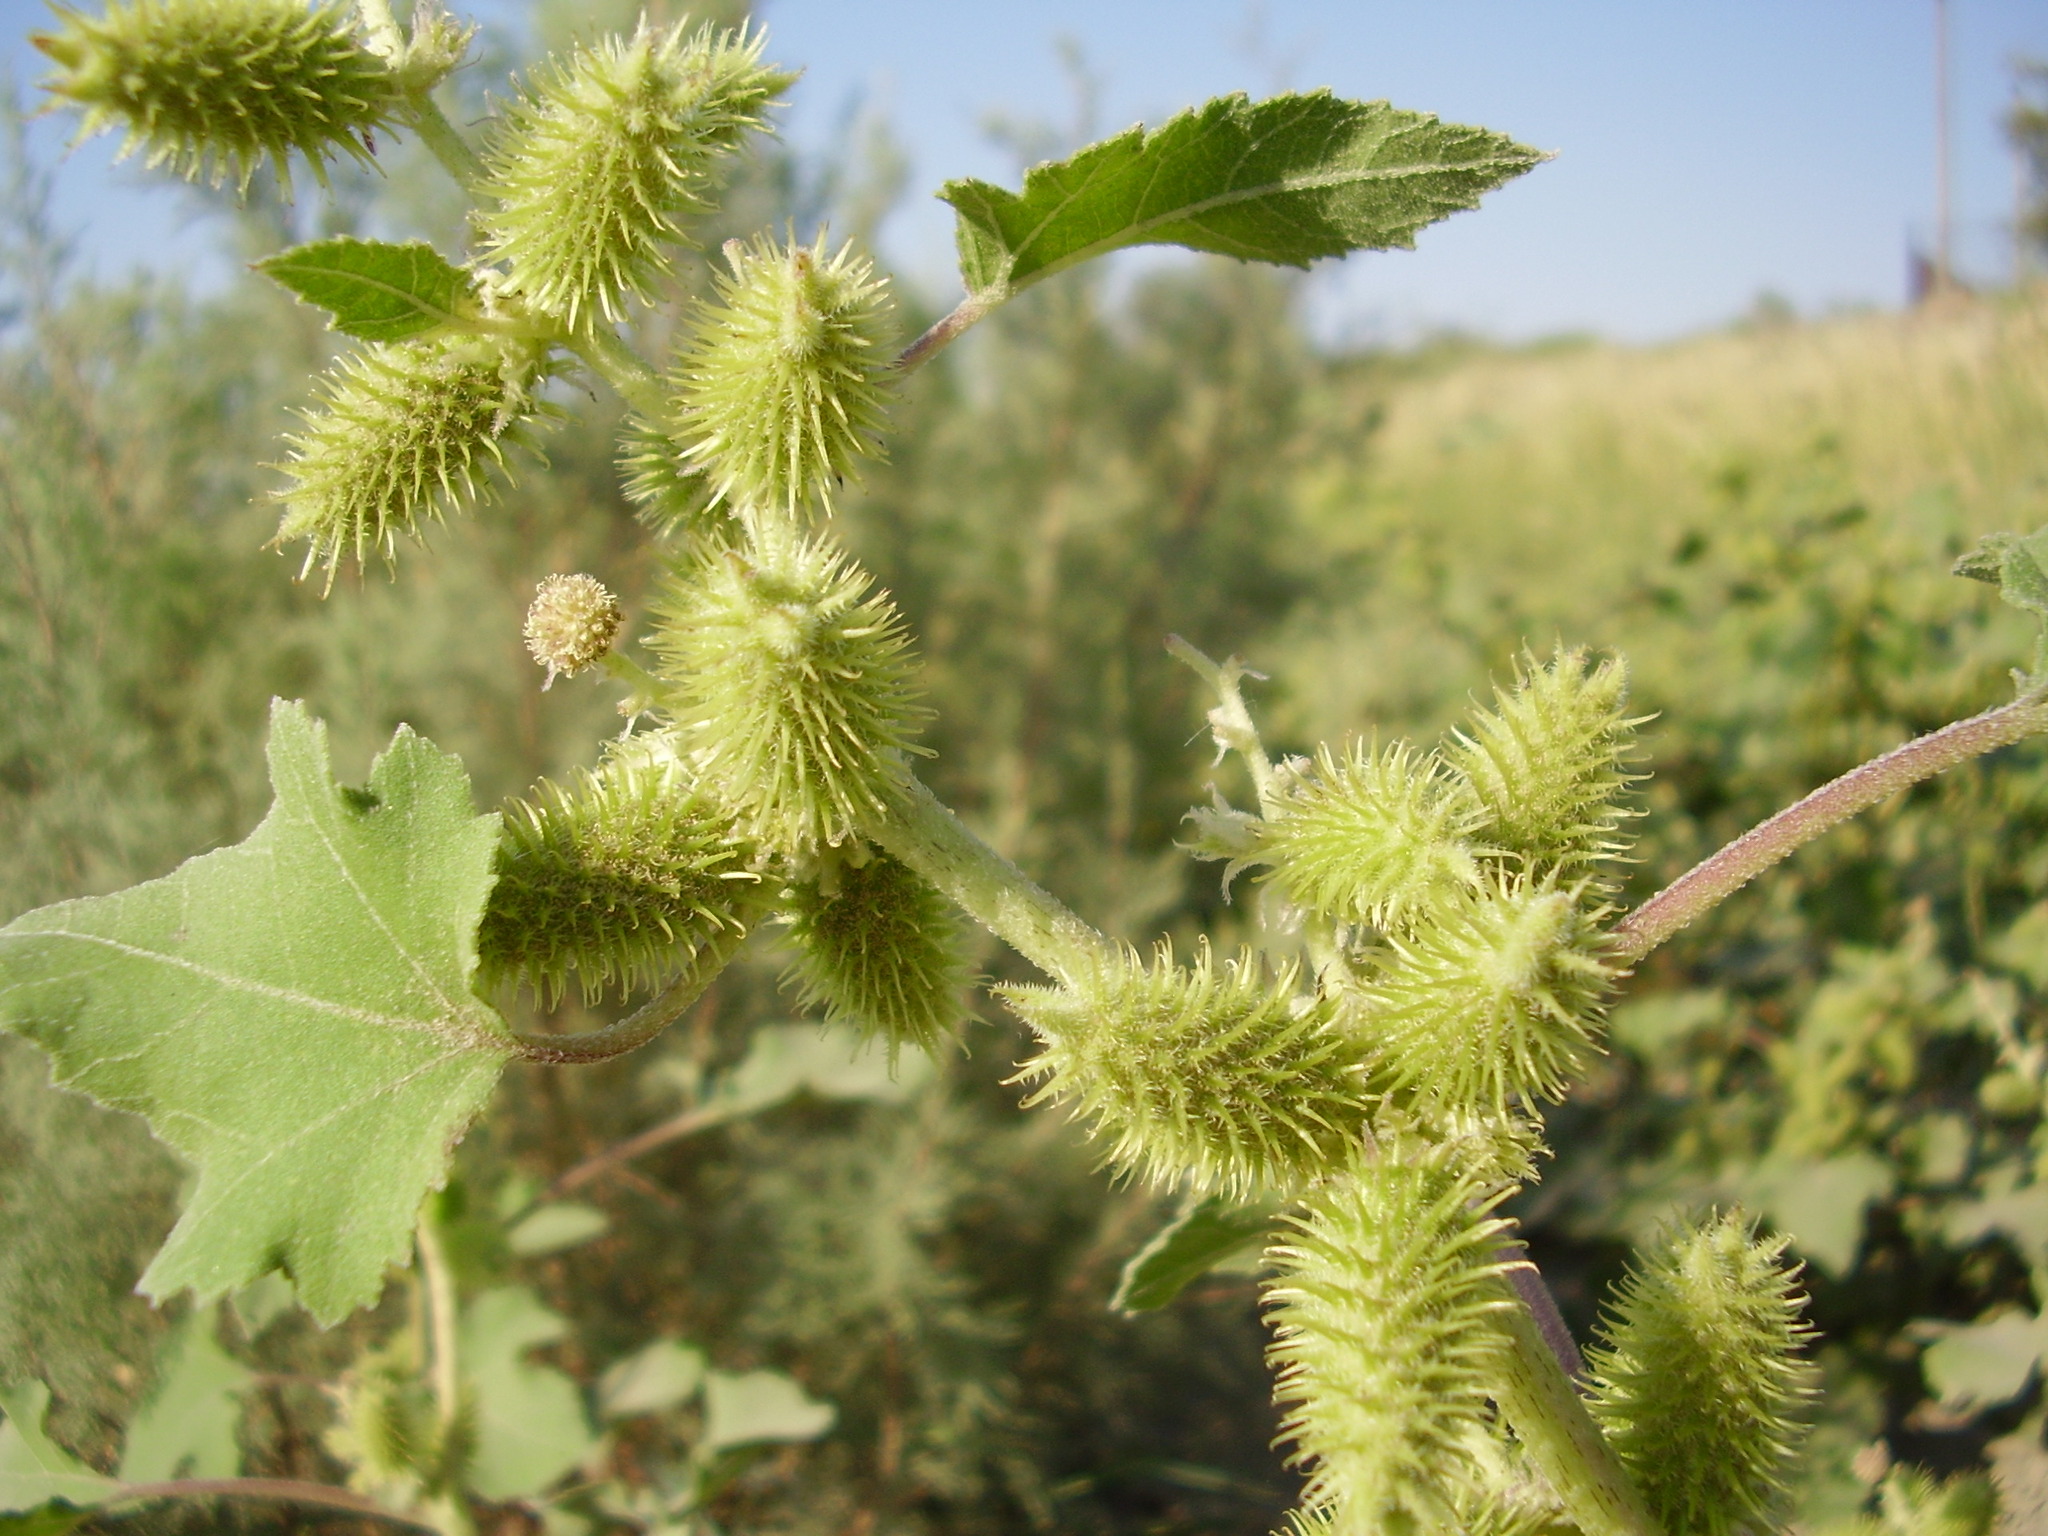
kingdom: Plantae
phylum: Tracheophyta
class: Magnoliopsida
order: Asterales
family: Asteraceae
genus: Xanthium
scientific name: Xanthium orientale
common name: Californian burr
